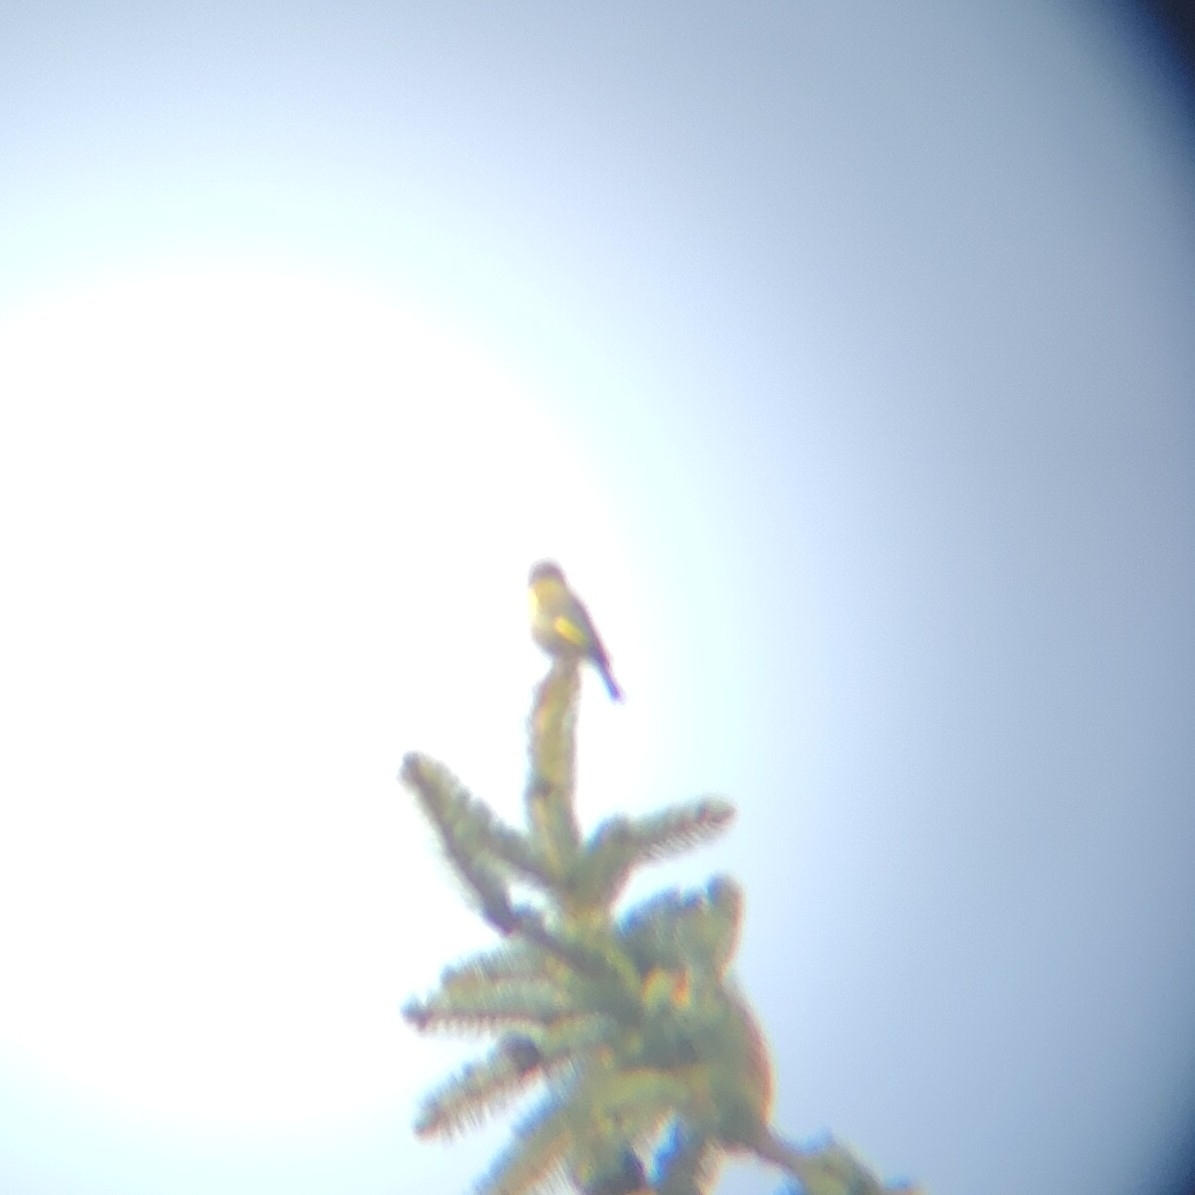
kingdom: Plantae
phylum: Tracheophyta
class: Liliopsida
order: Poales
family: Poaceae
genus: Chloris
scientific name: Chloris chloris
